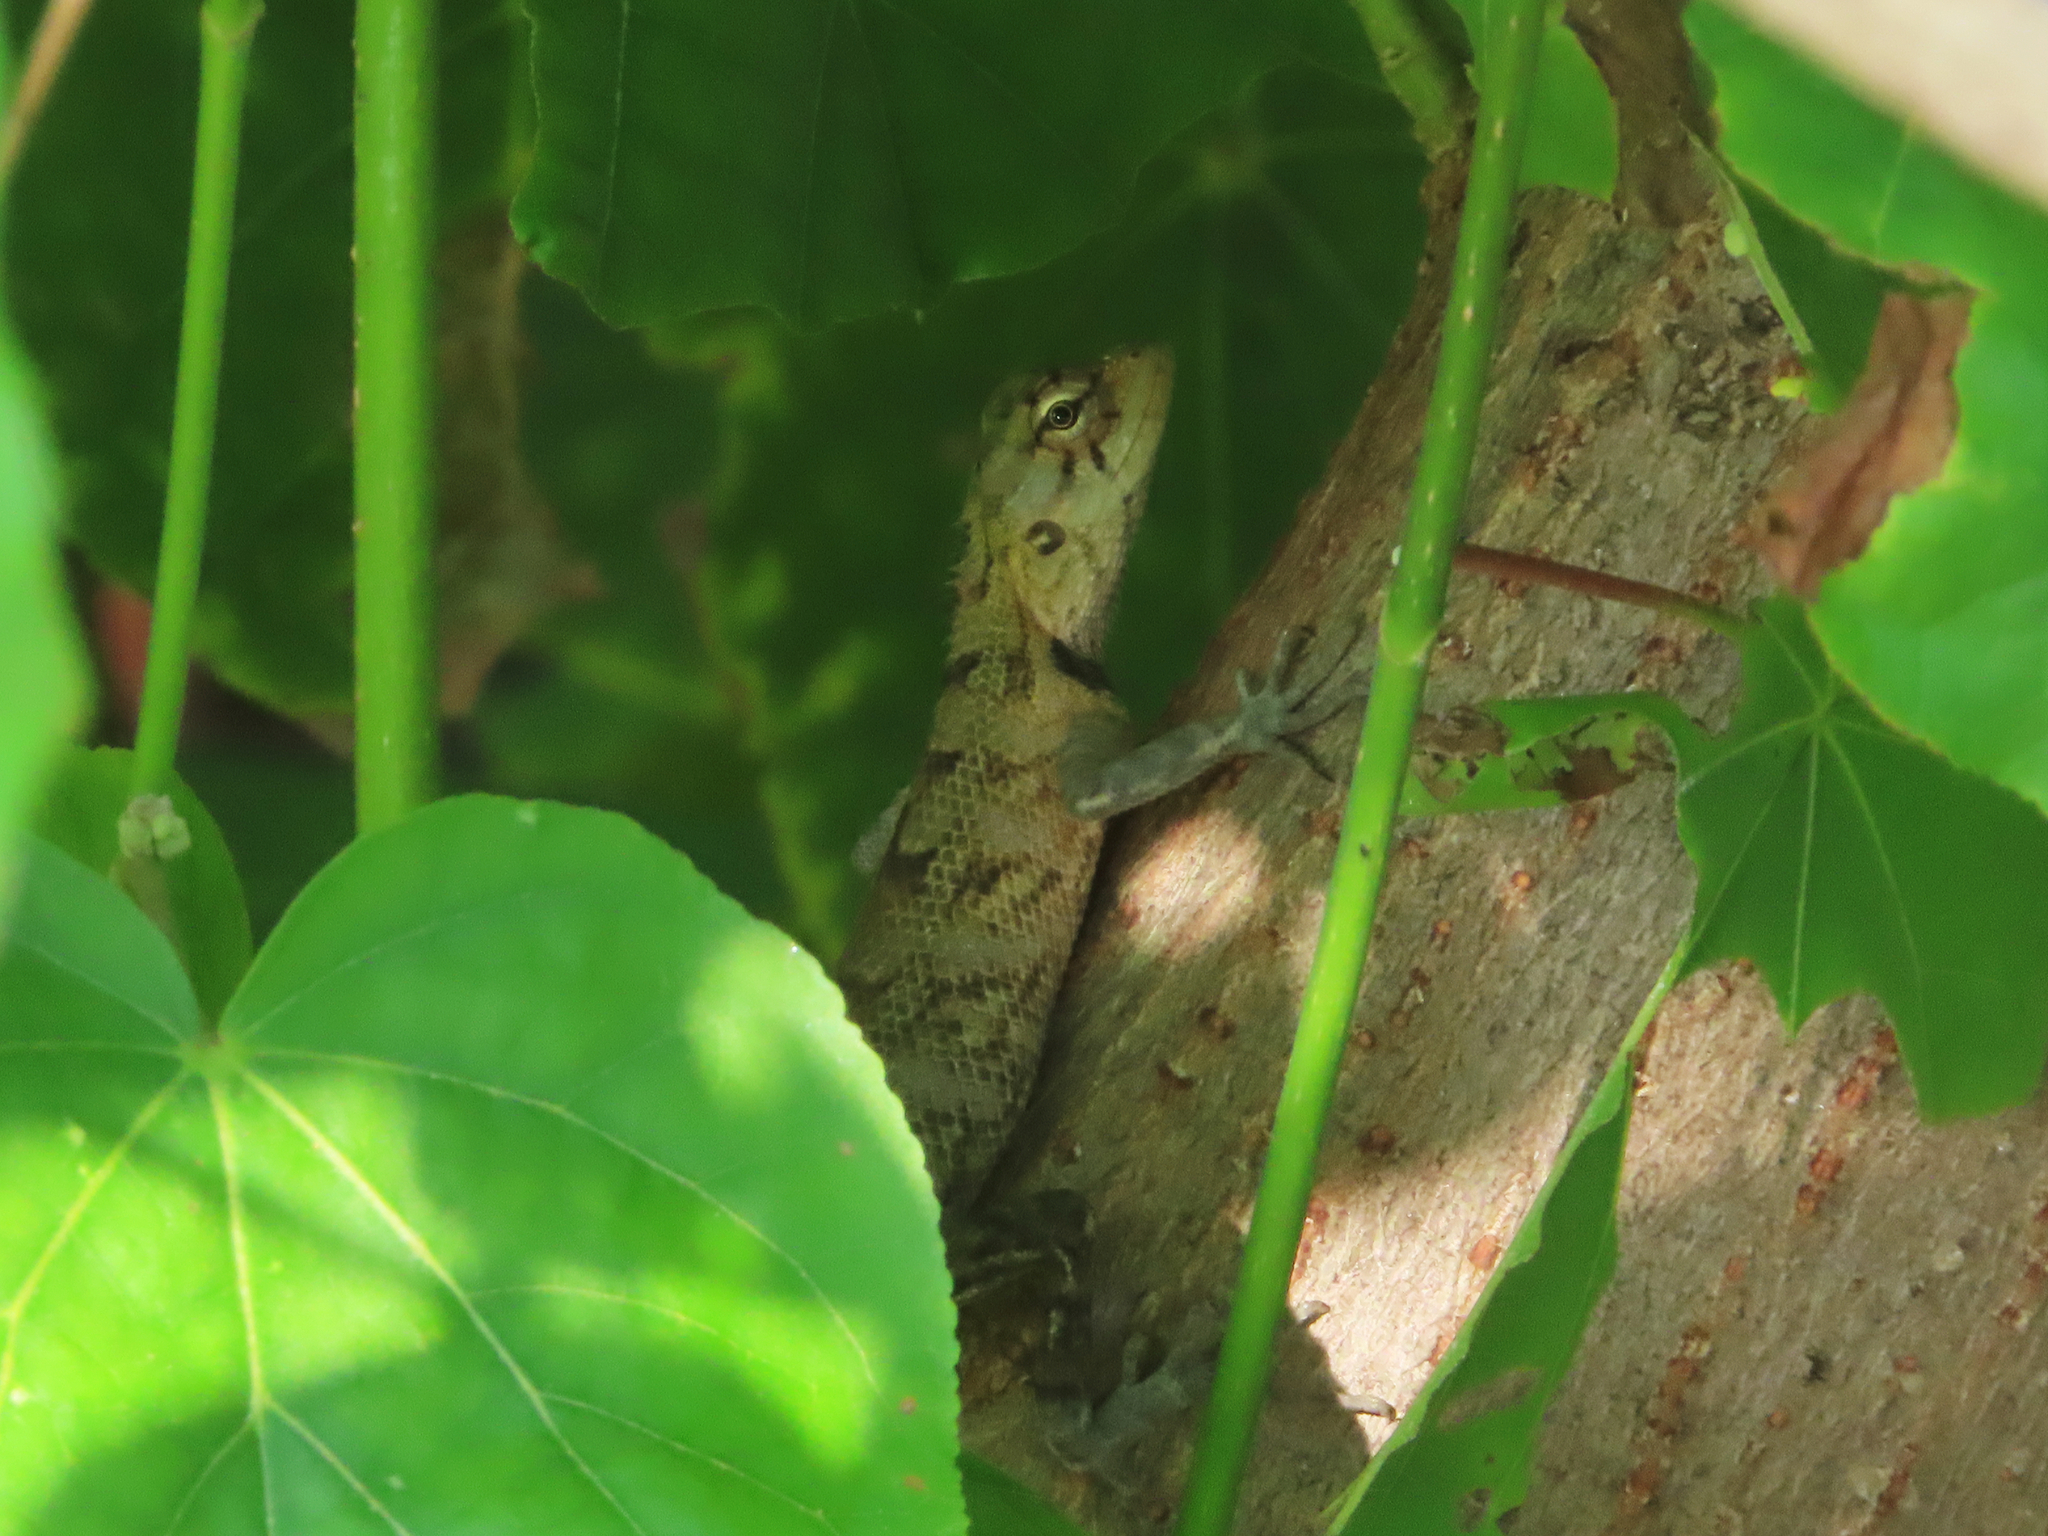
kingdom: Animalia
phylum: Chordata
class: Squamata
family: Agamidae
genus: Calotes
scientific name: Calotes versicolor
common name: Oriental garden lizard
